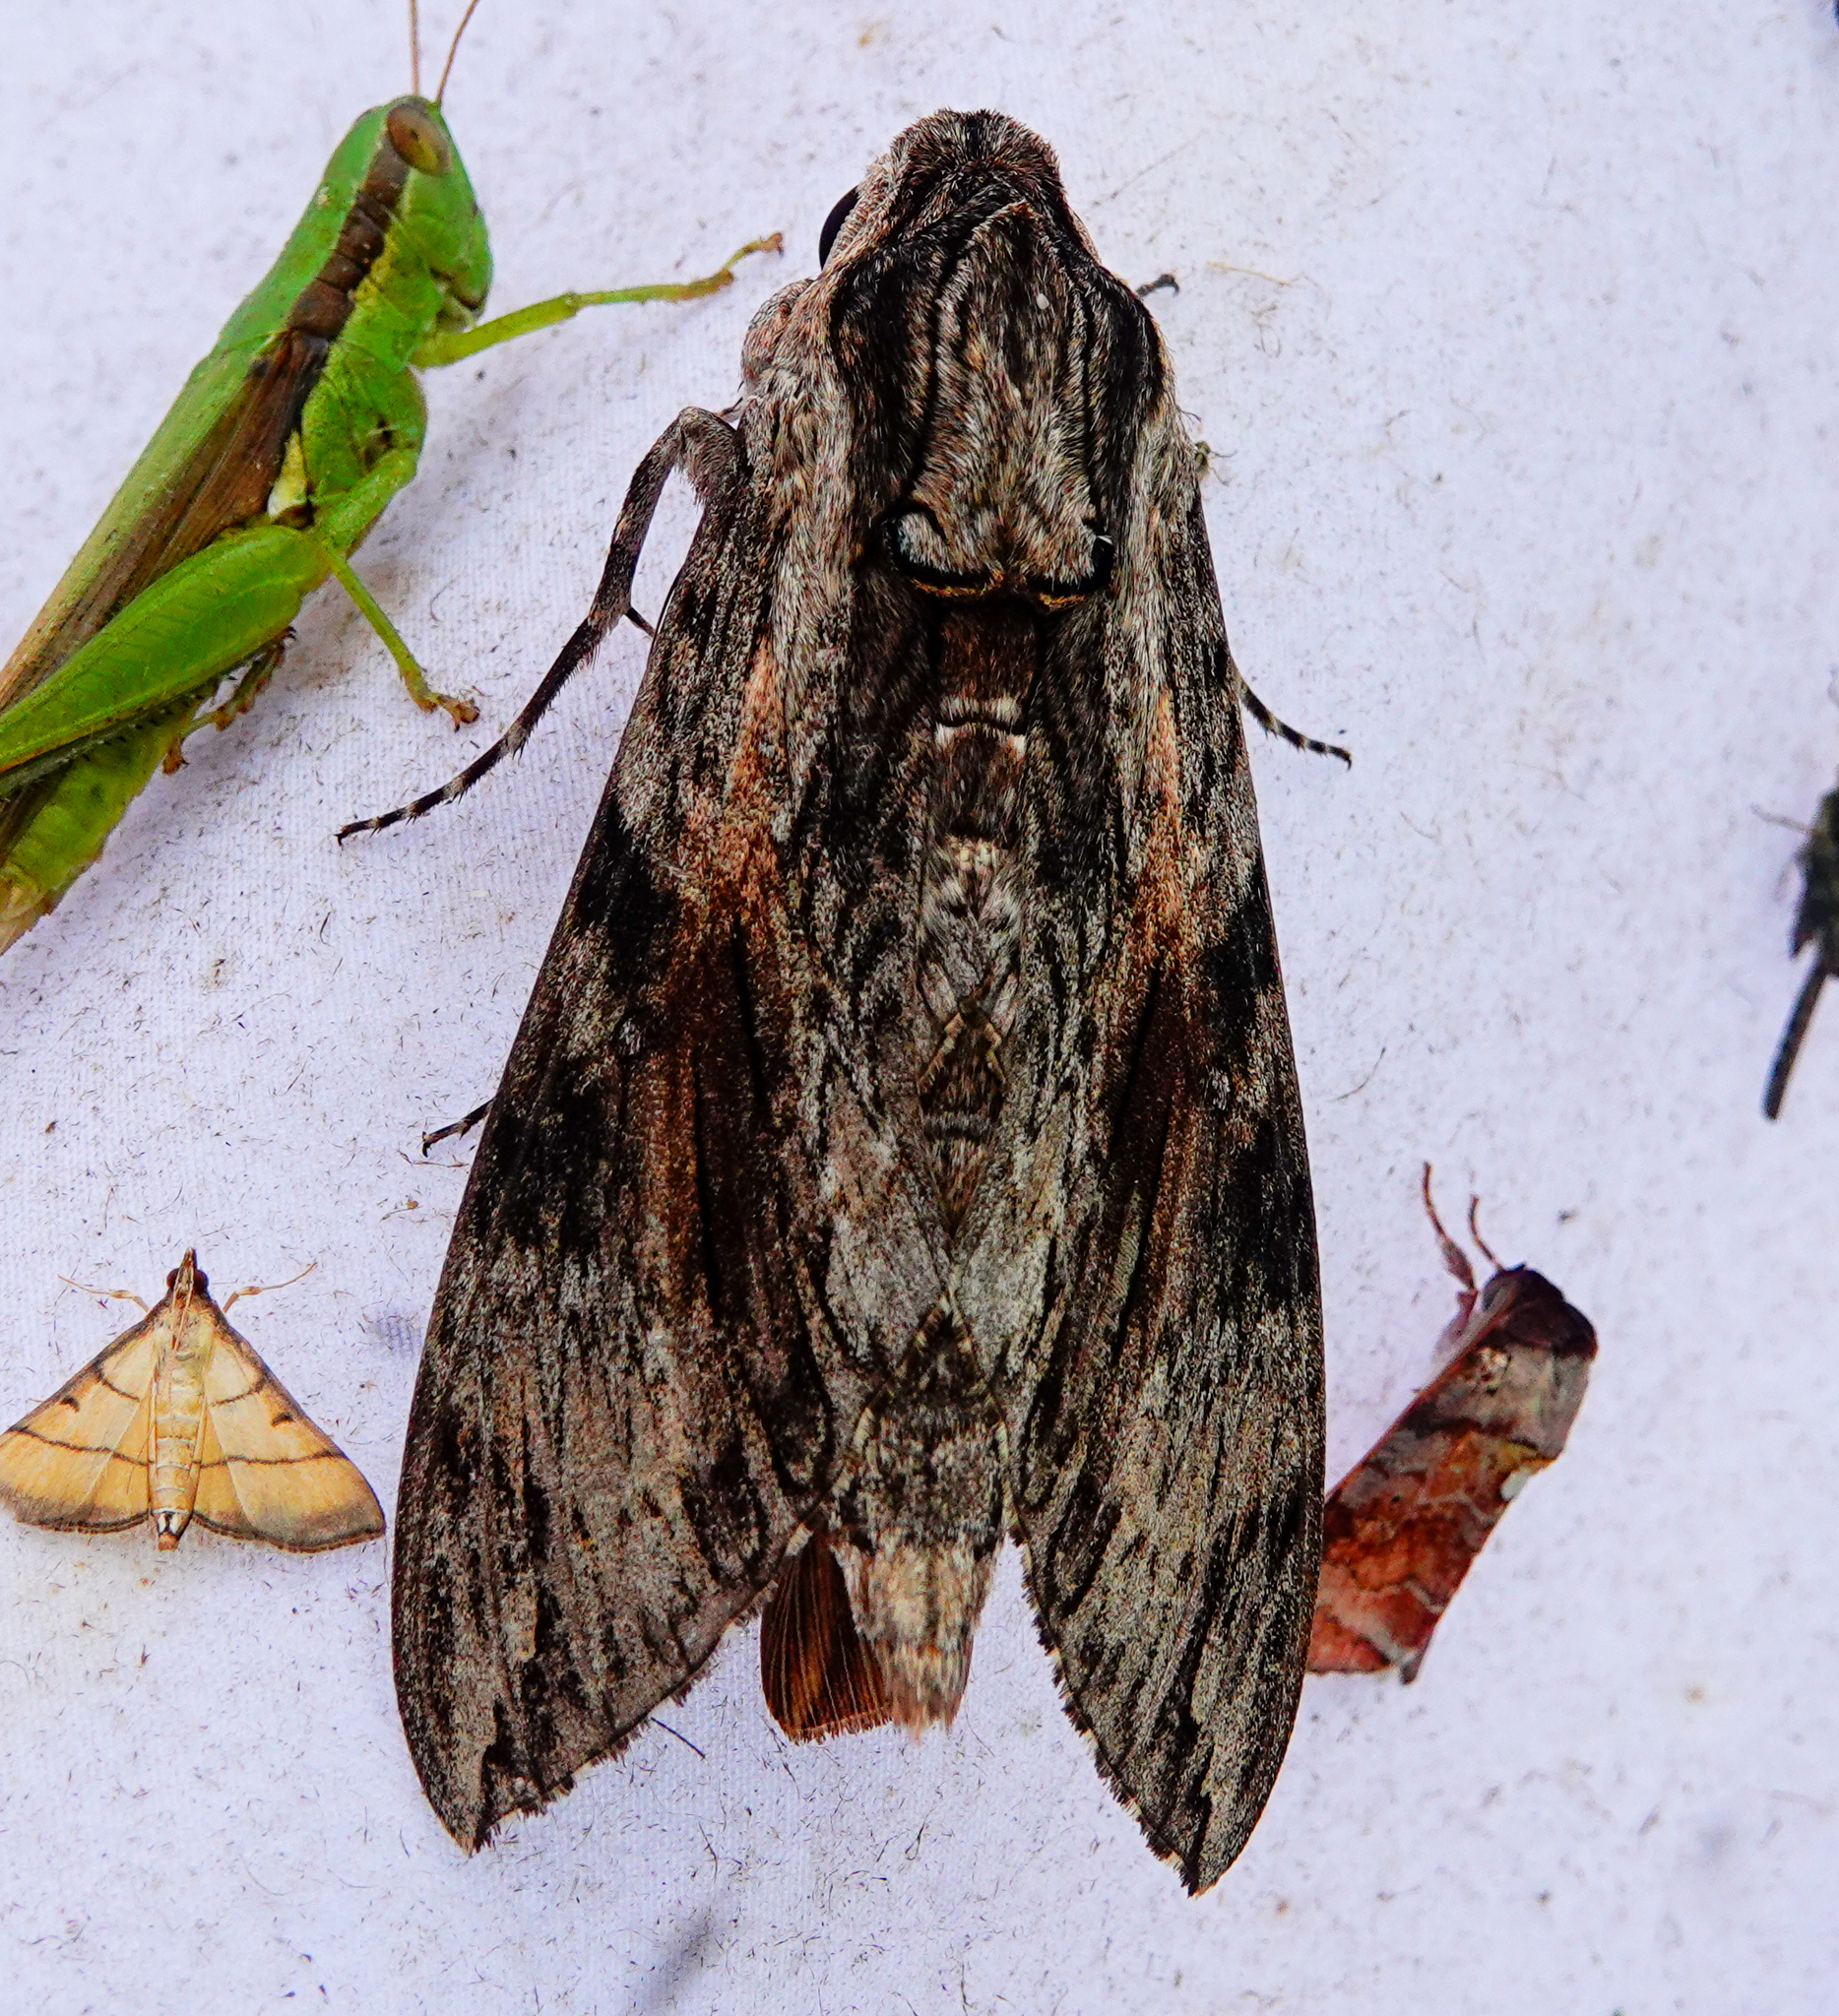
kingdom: Animalia
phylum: Arthropoda
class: Insecta
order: Lepidoptera
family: Sphingidae
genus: Agrius
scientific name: Agrius convolvuli
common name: Convolvulus hawkmoth
